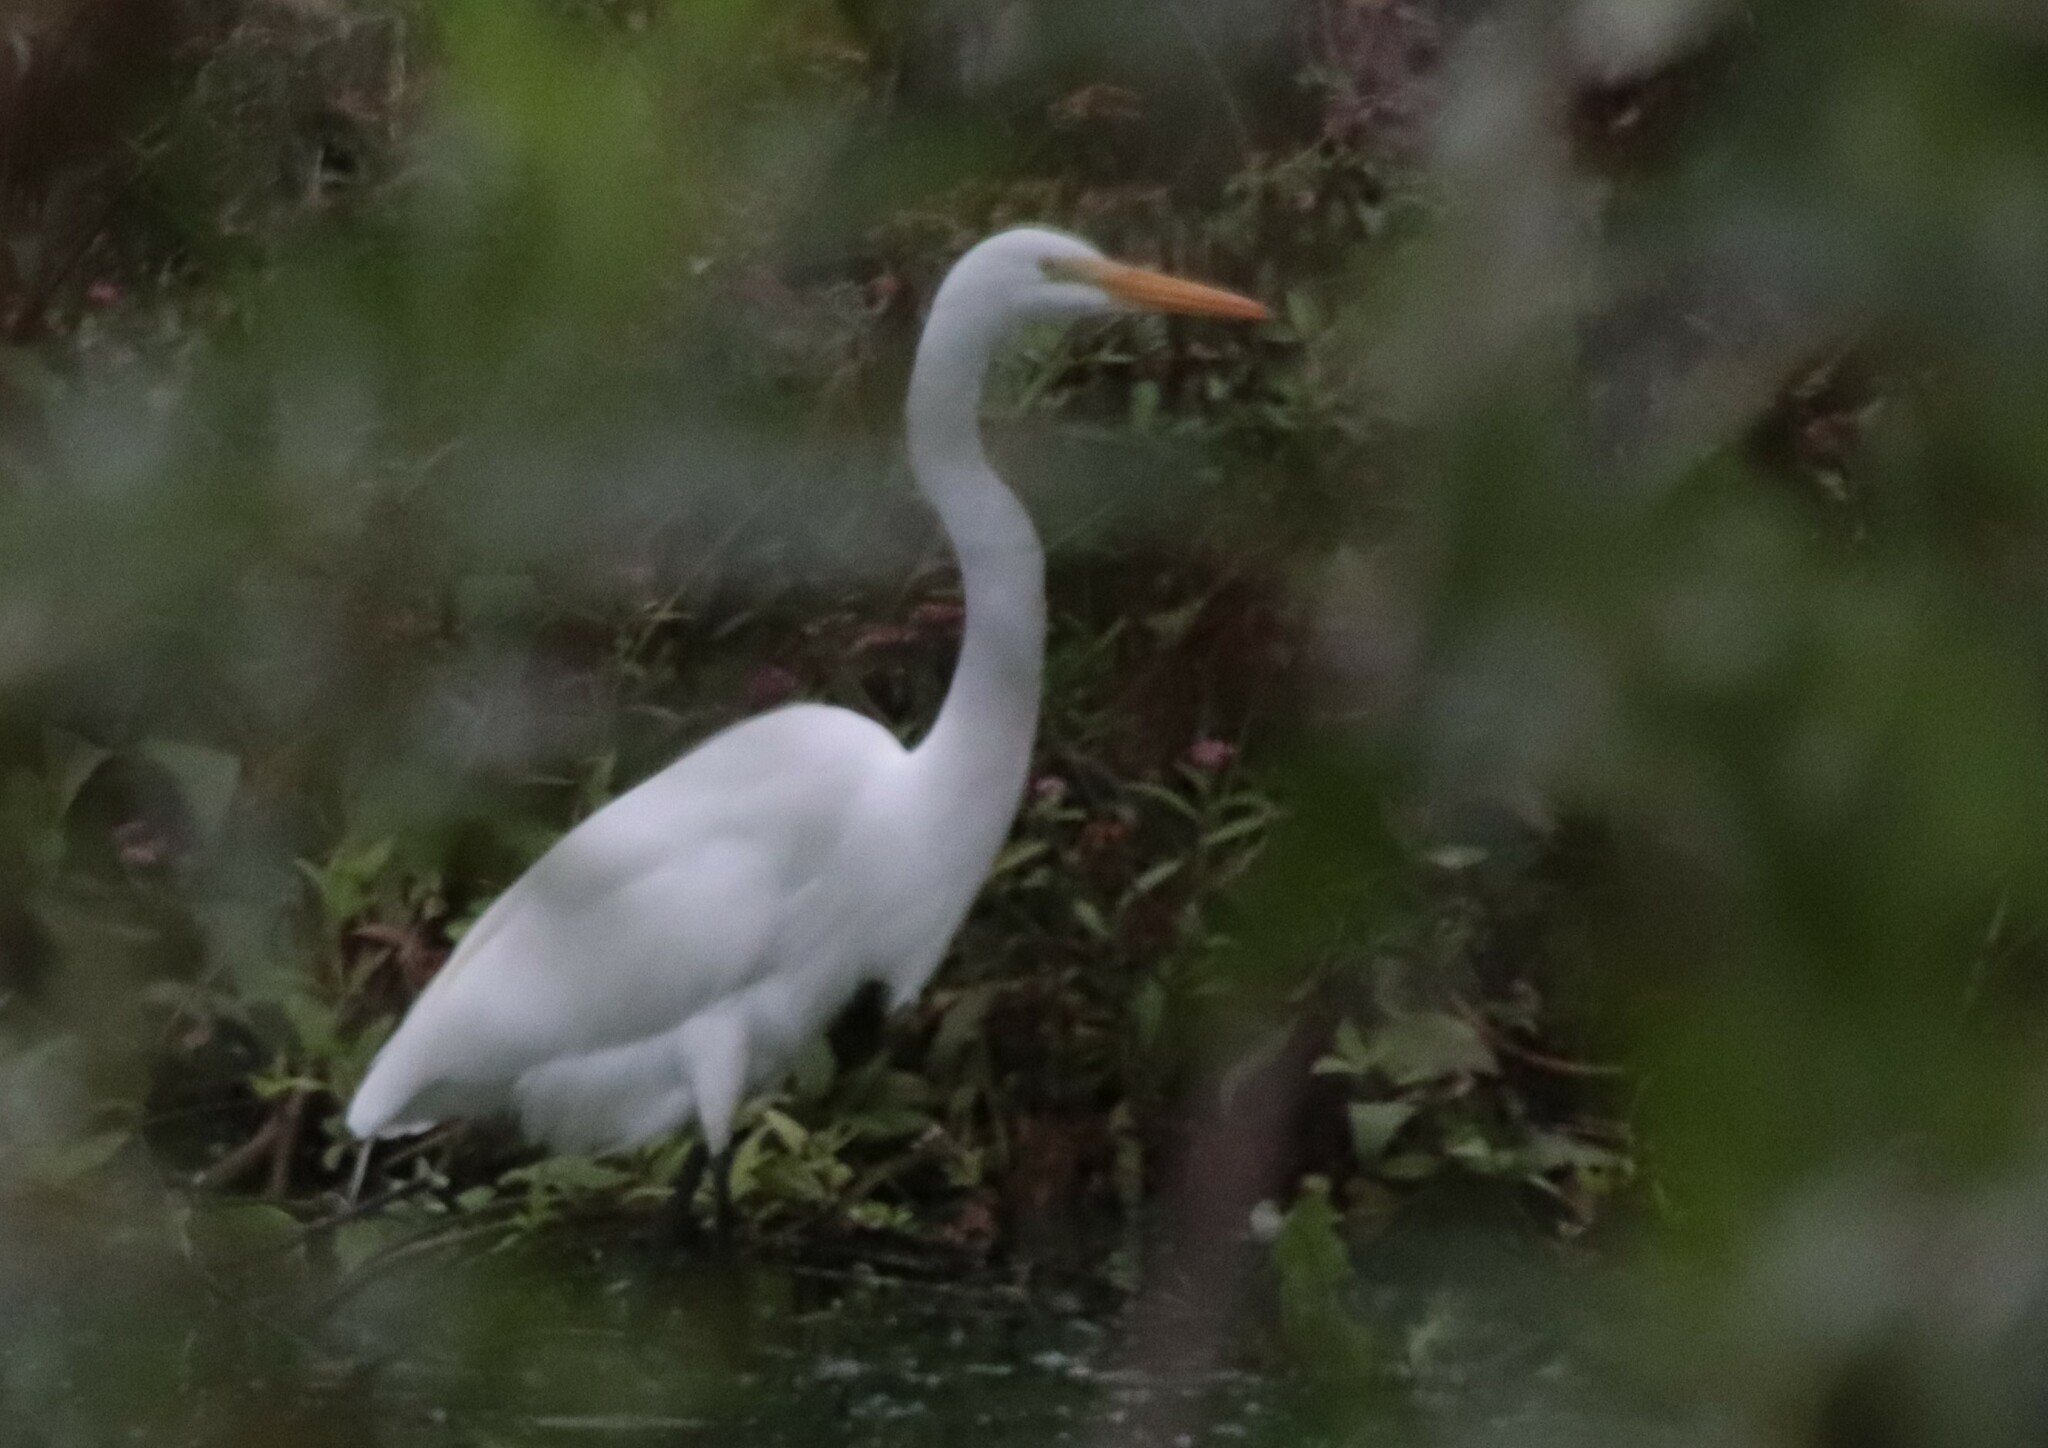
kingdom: Animalia
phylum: Chordata
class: Aves
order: Pelecaniformes
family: Ardeidae
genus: Ardea
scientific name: Ardea alba
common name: Great egret
